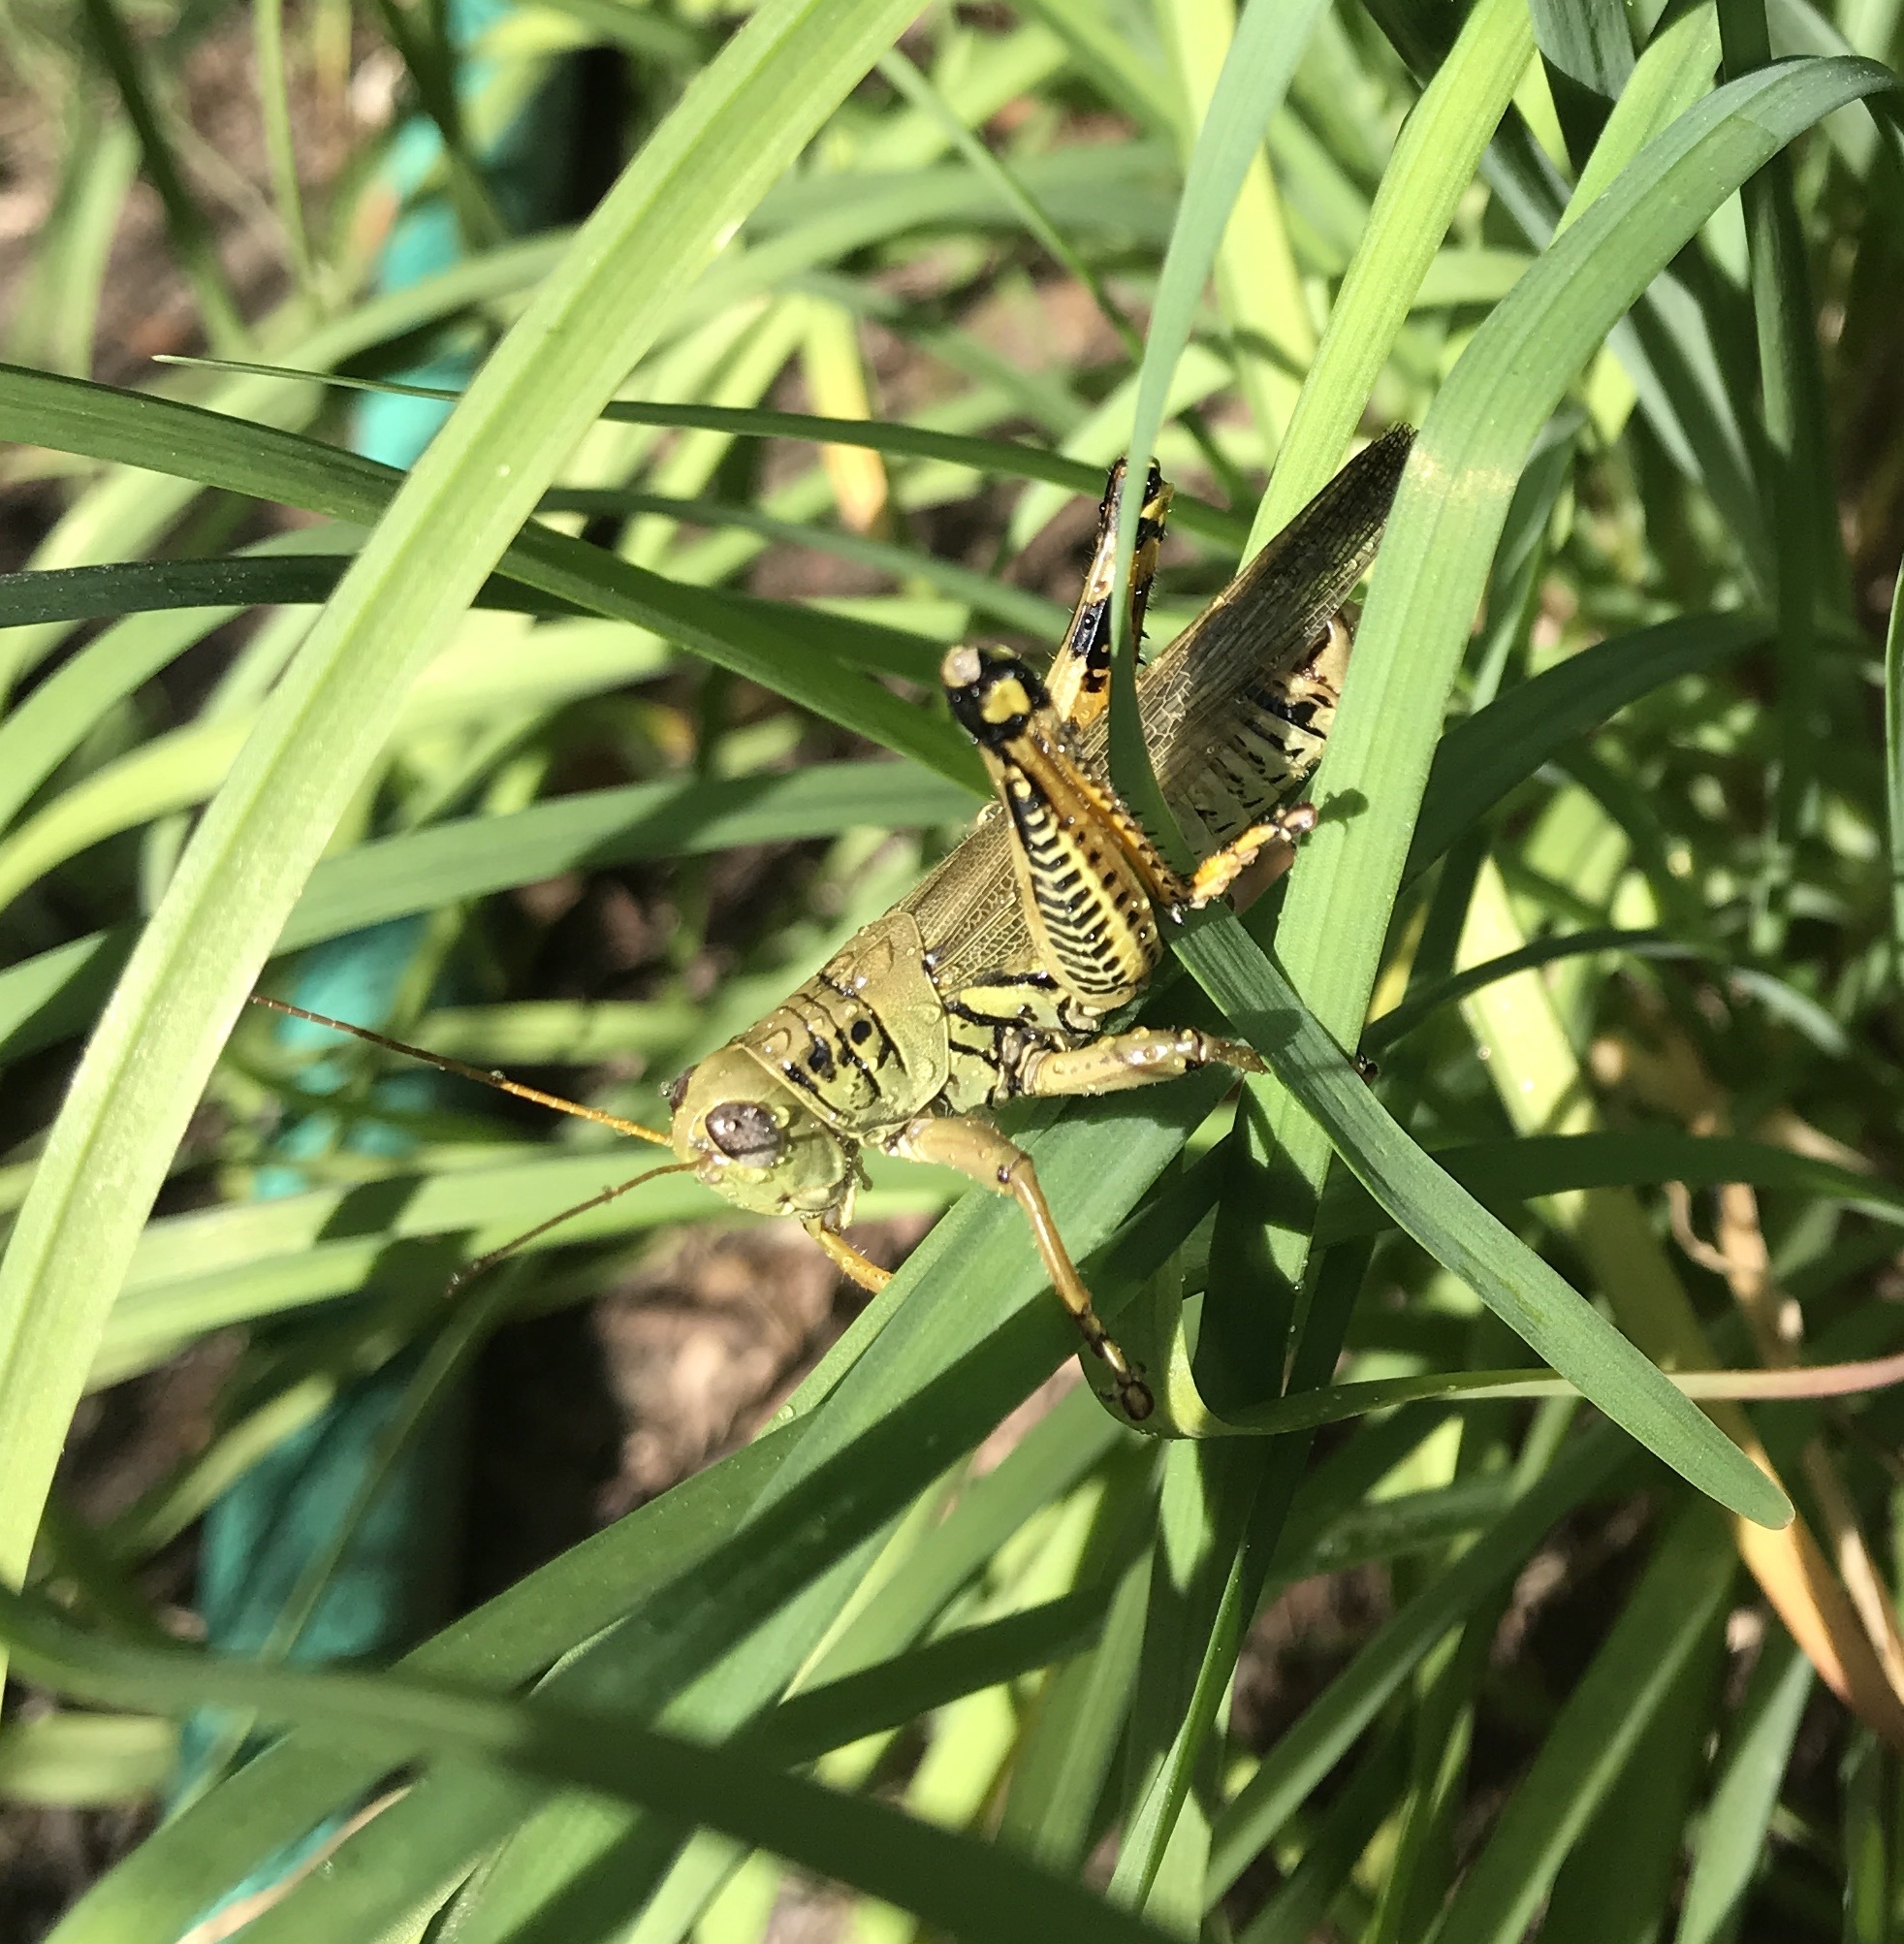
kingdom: Animalia
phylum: Arthropoda
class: Insecta
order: Orthoptera
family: Acrididae
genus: Melanoplus
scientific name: Melanoplus differentialis
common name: Differential grasshopper
